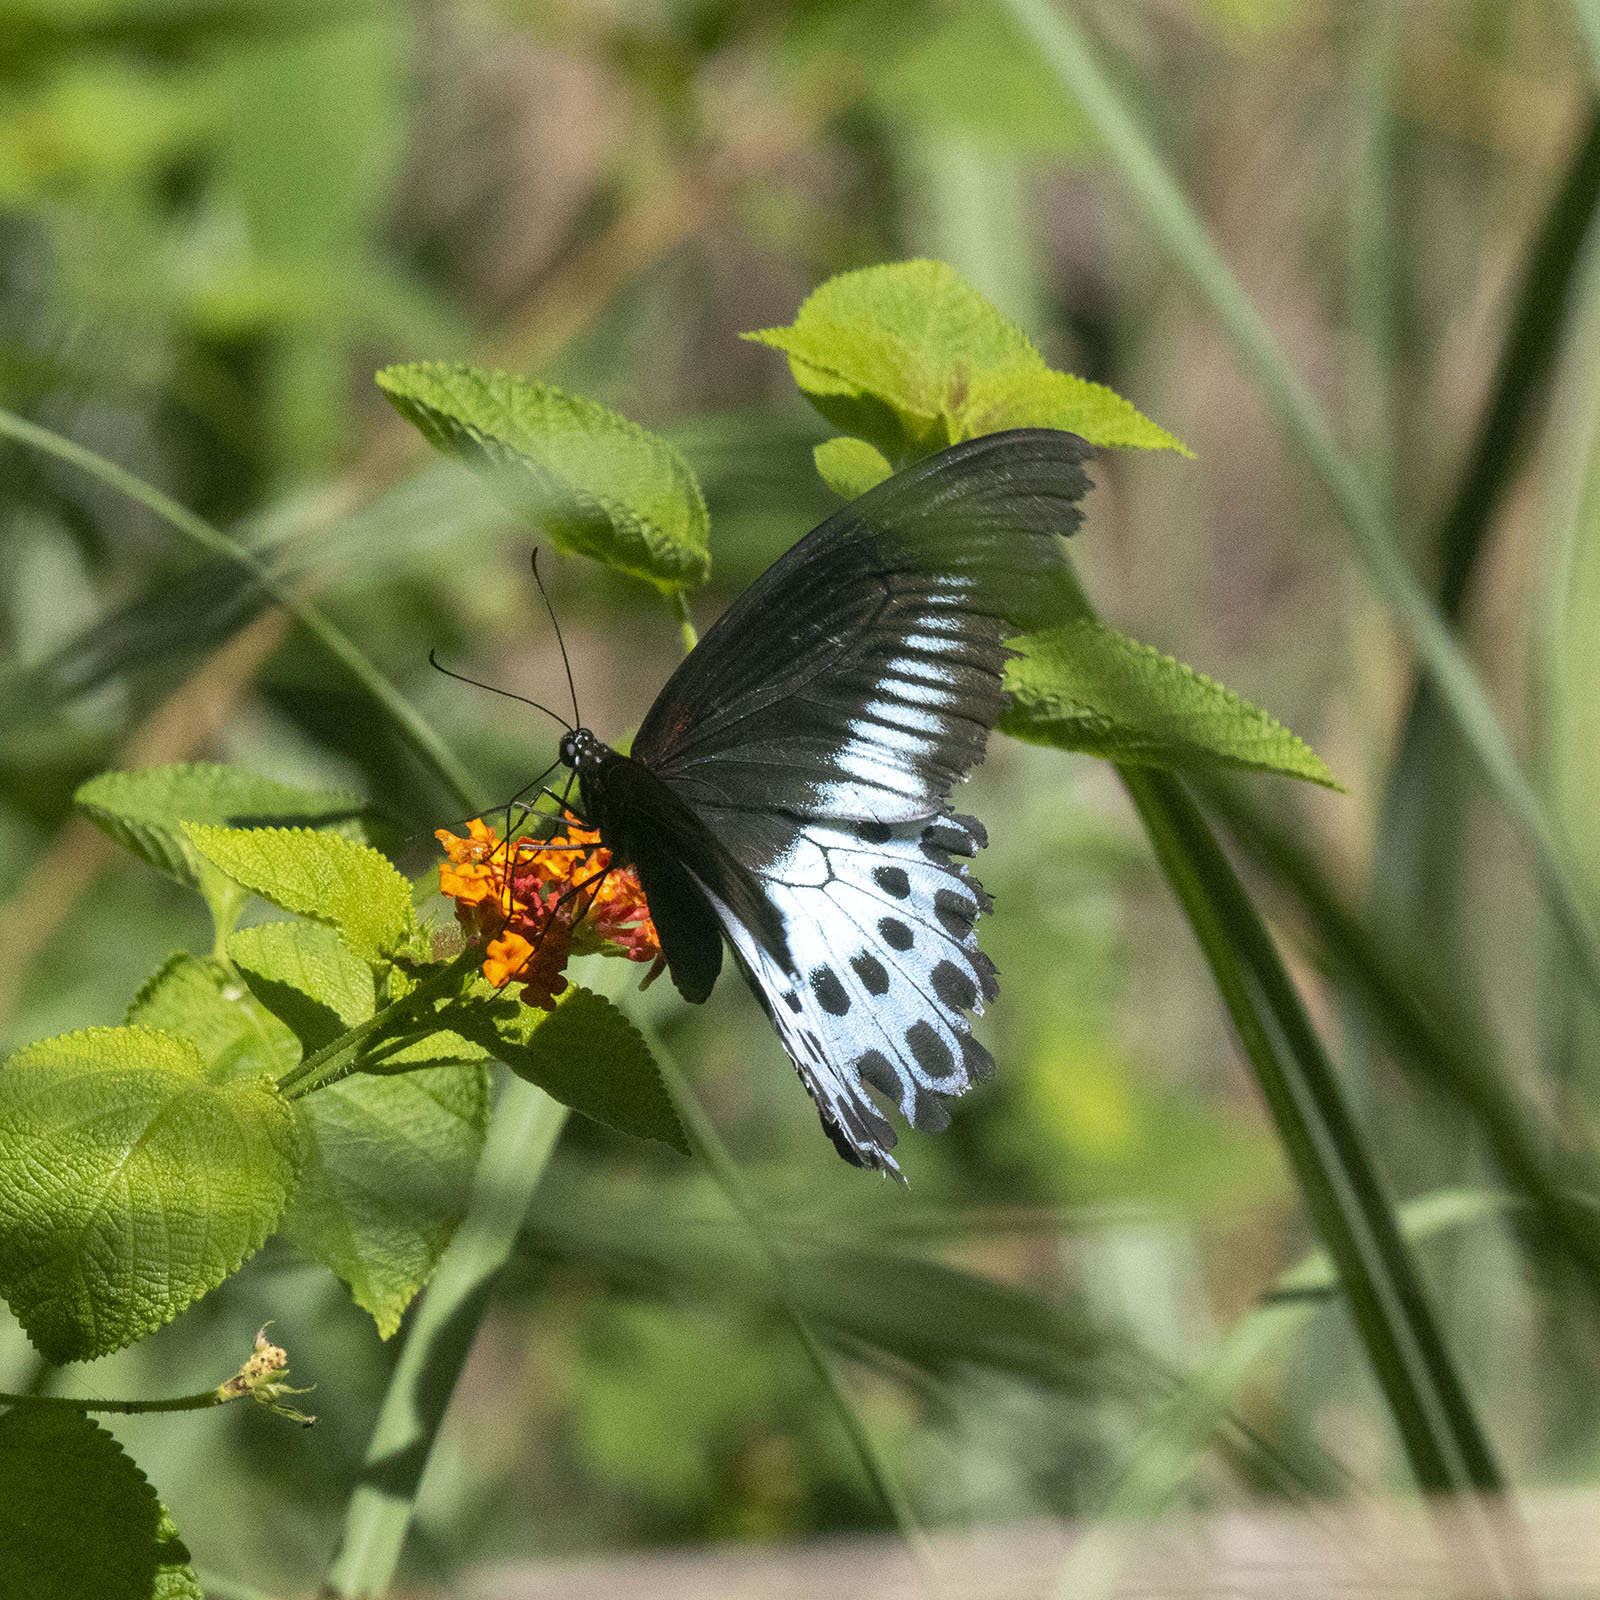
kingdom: Animalia
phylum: Arthropoda
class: Insecta
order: Lepidoptera
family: Papilionidae
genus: Papilio
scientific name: Papilio memnon
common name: Great mormon
